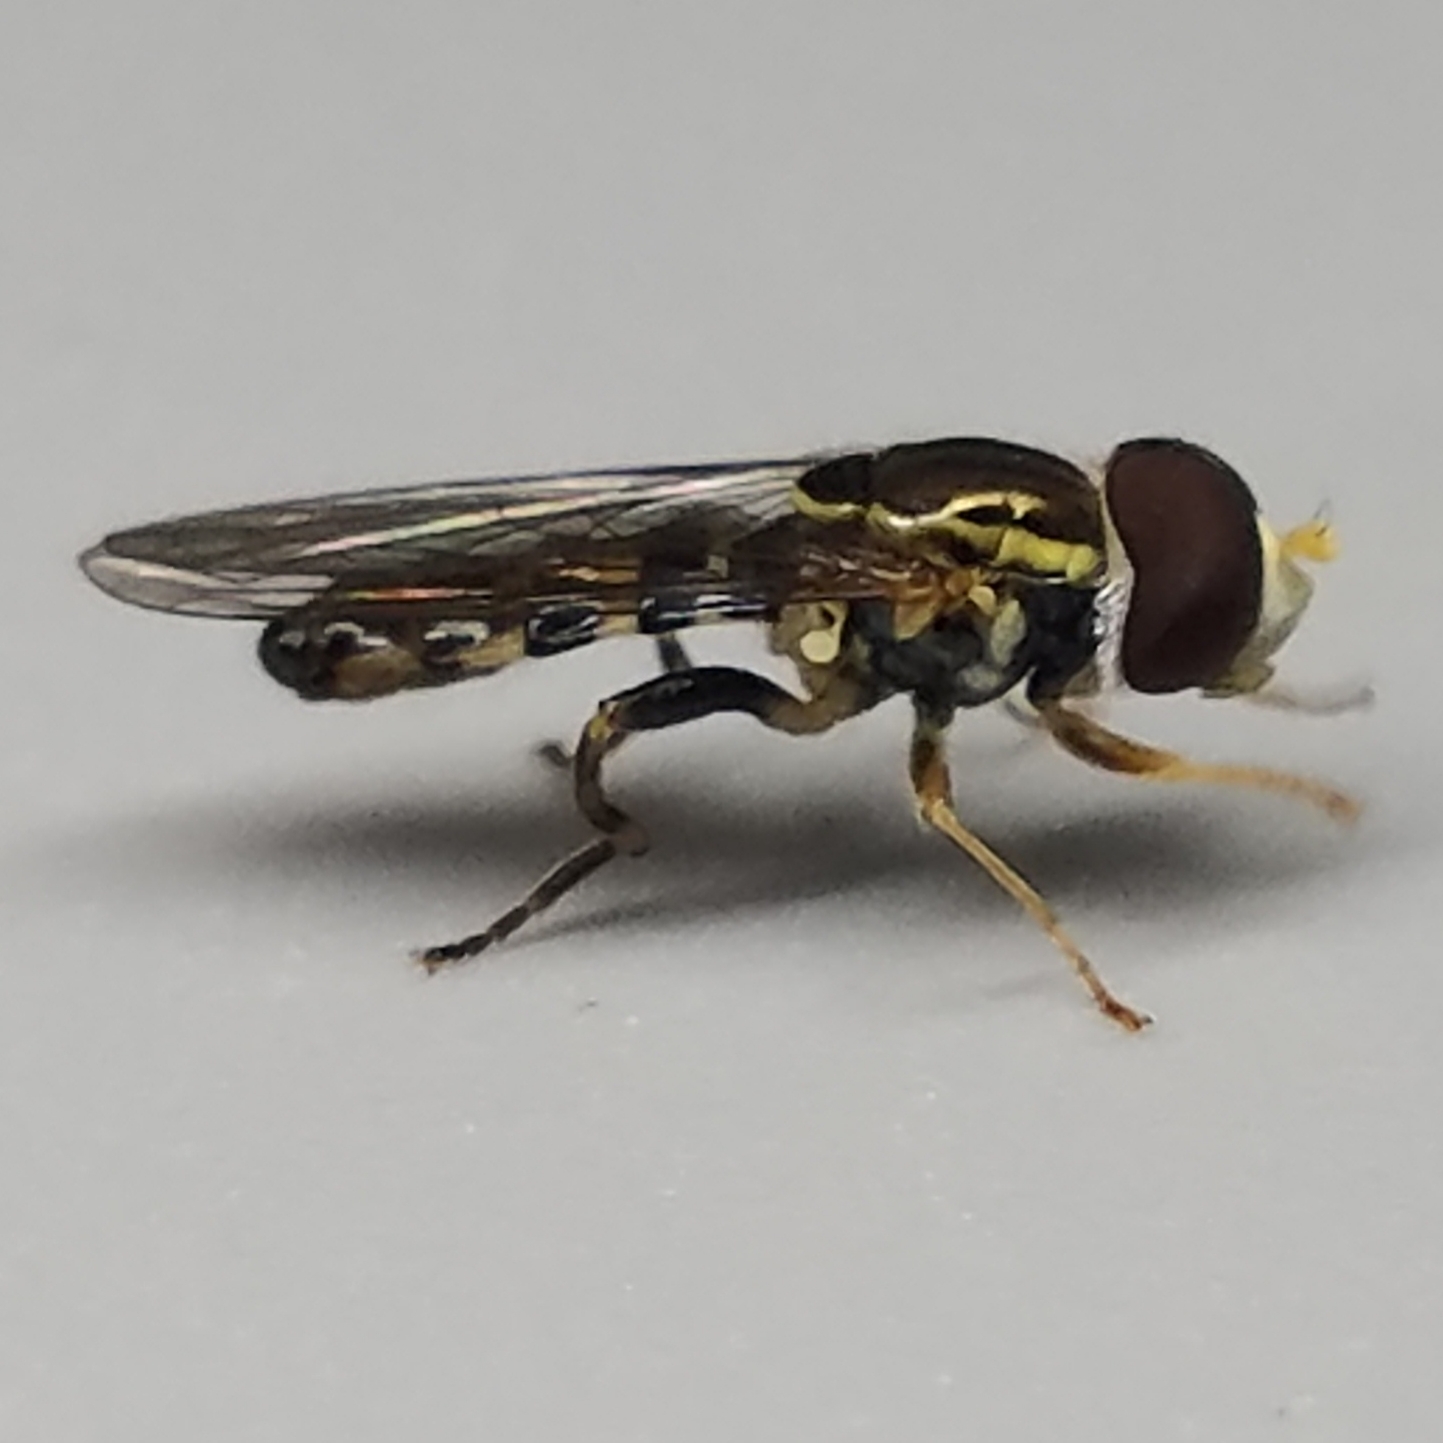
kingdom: Animalia
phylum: Arthropoda
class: Insecta
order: Diptera
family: Syrphidae
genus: Toxomerus
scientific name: Toxomerus geminatus
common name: Eastern calligrapher
